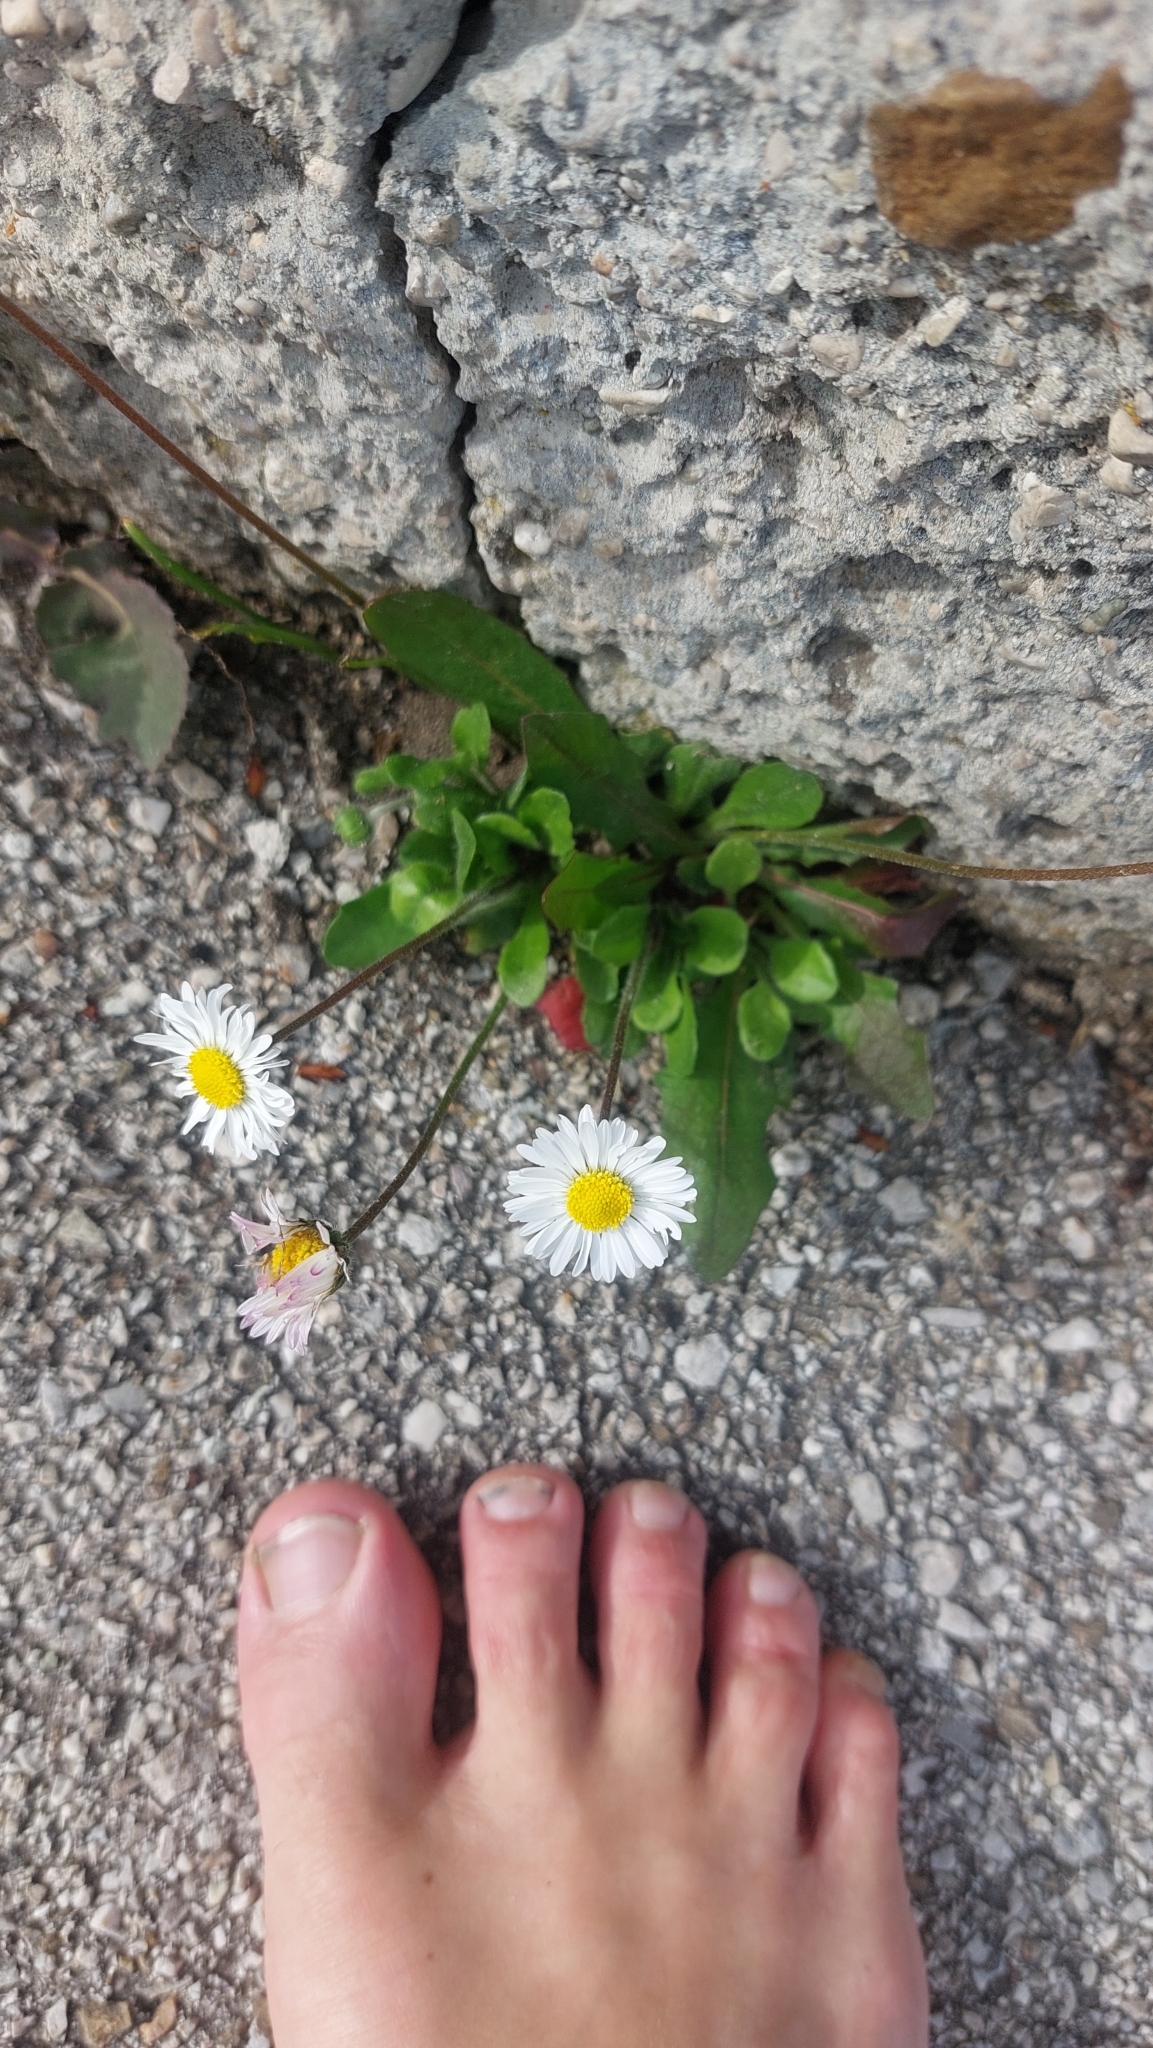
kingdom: Plantae
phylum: Tracheophyta
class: Magnoliopsida
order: Asterales
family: Asteraceae
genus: Bellis
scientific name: Bellis perennis
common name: Lawndaisy
